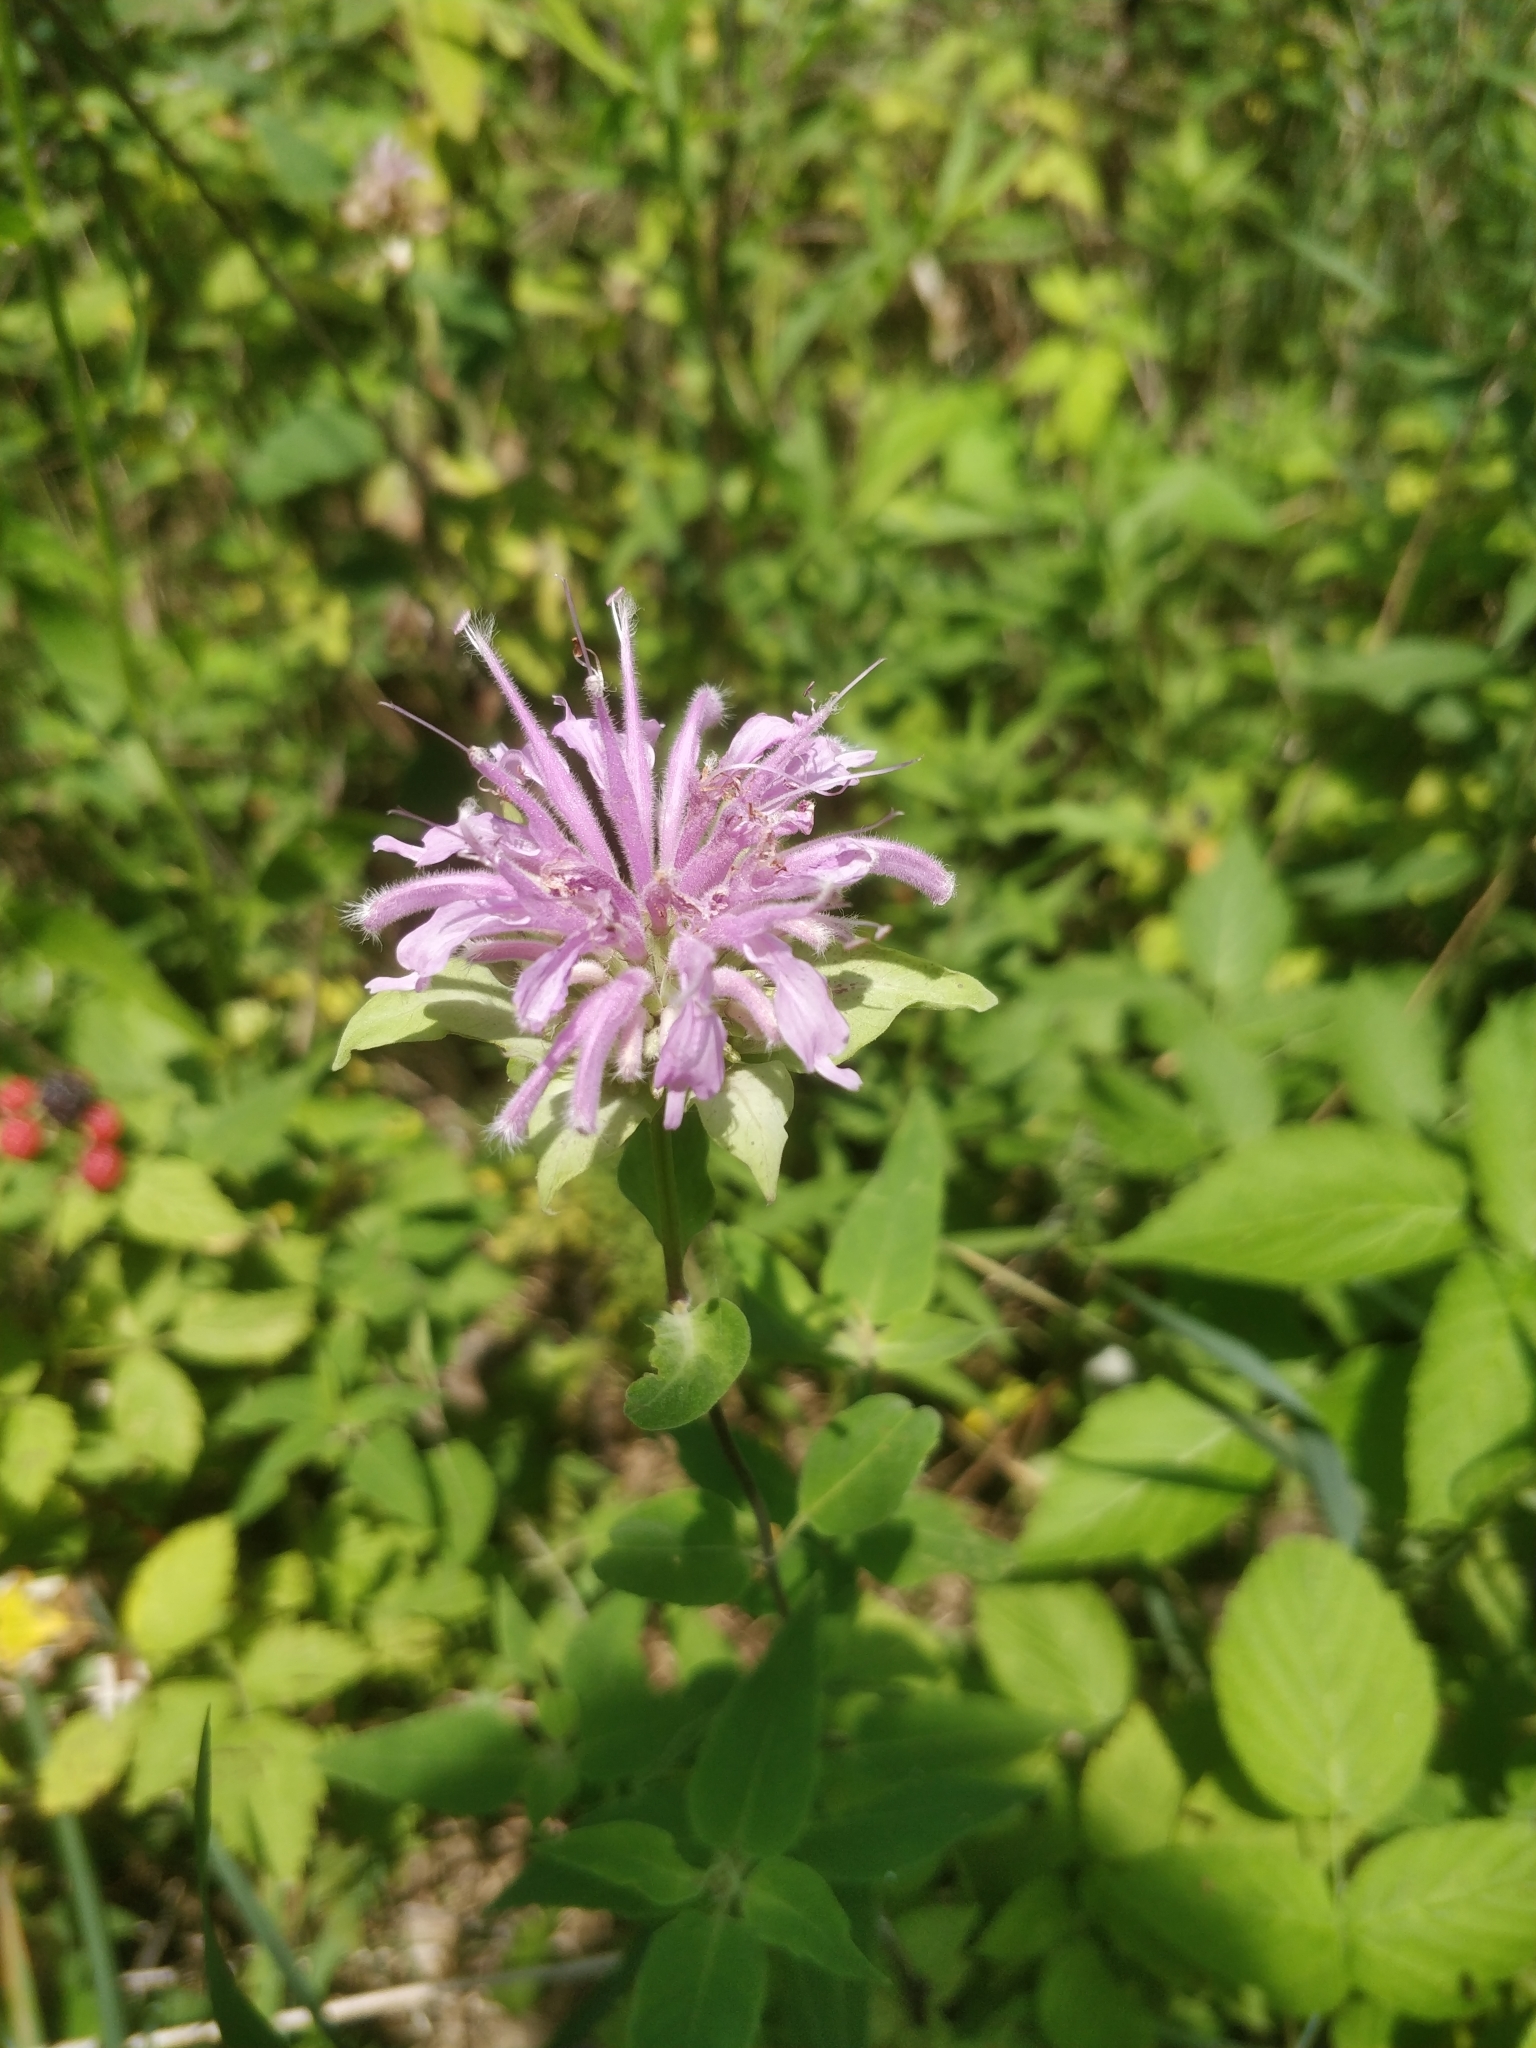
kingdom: Plantae
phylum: Tracheophyta
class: Magnoliopsida
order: Lamiales
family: Lamiaceae
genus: Monarda
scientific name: Monarda fistulosa
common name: Purple beebalm
